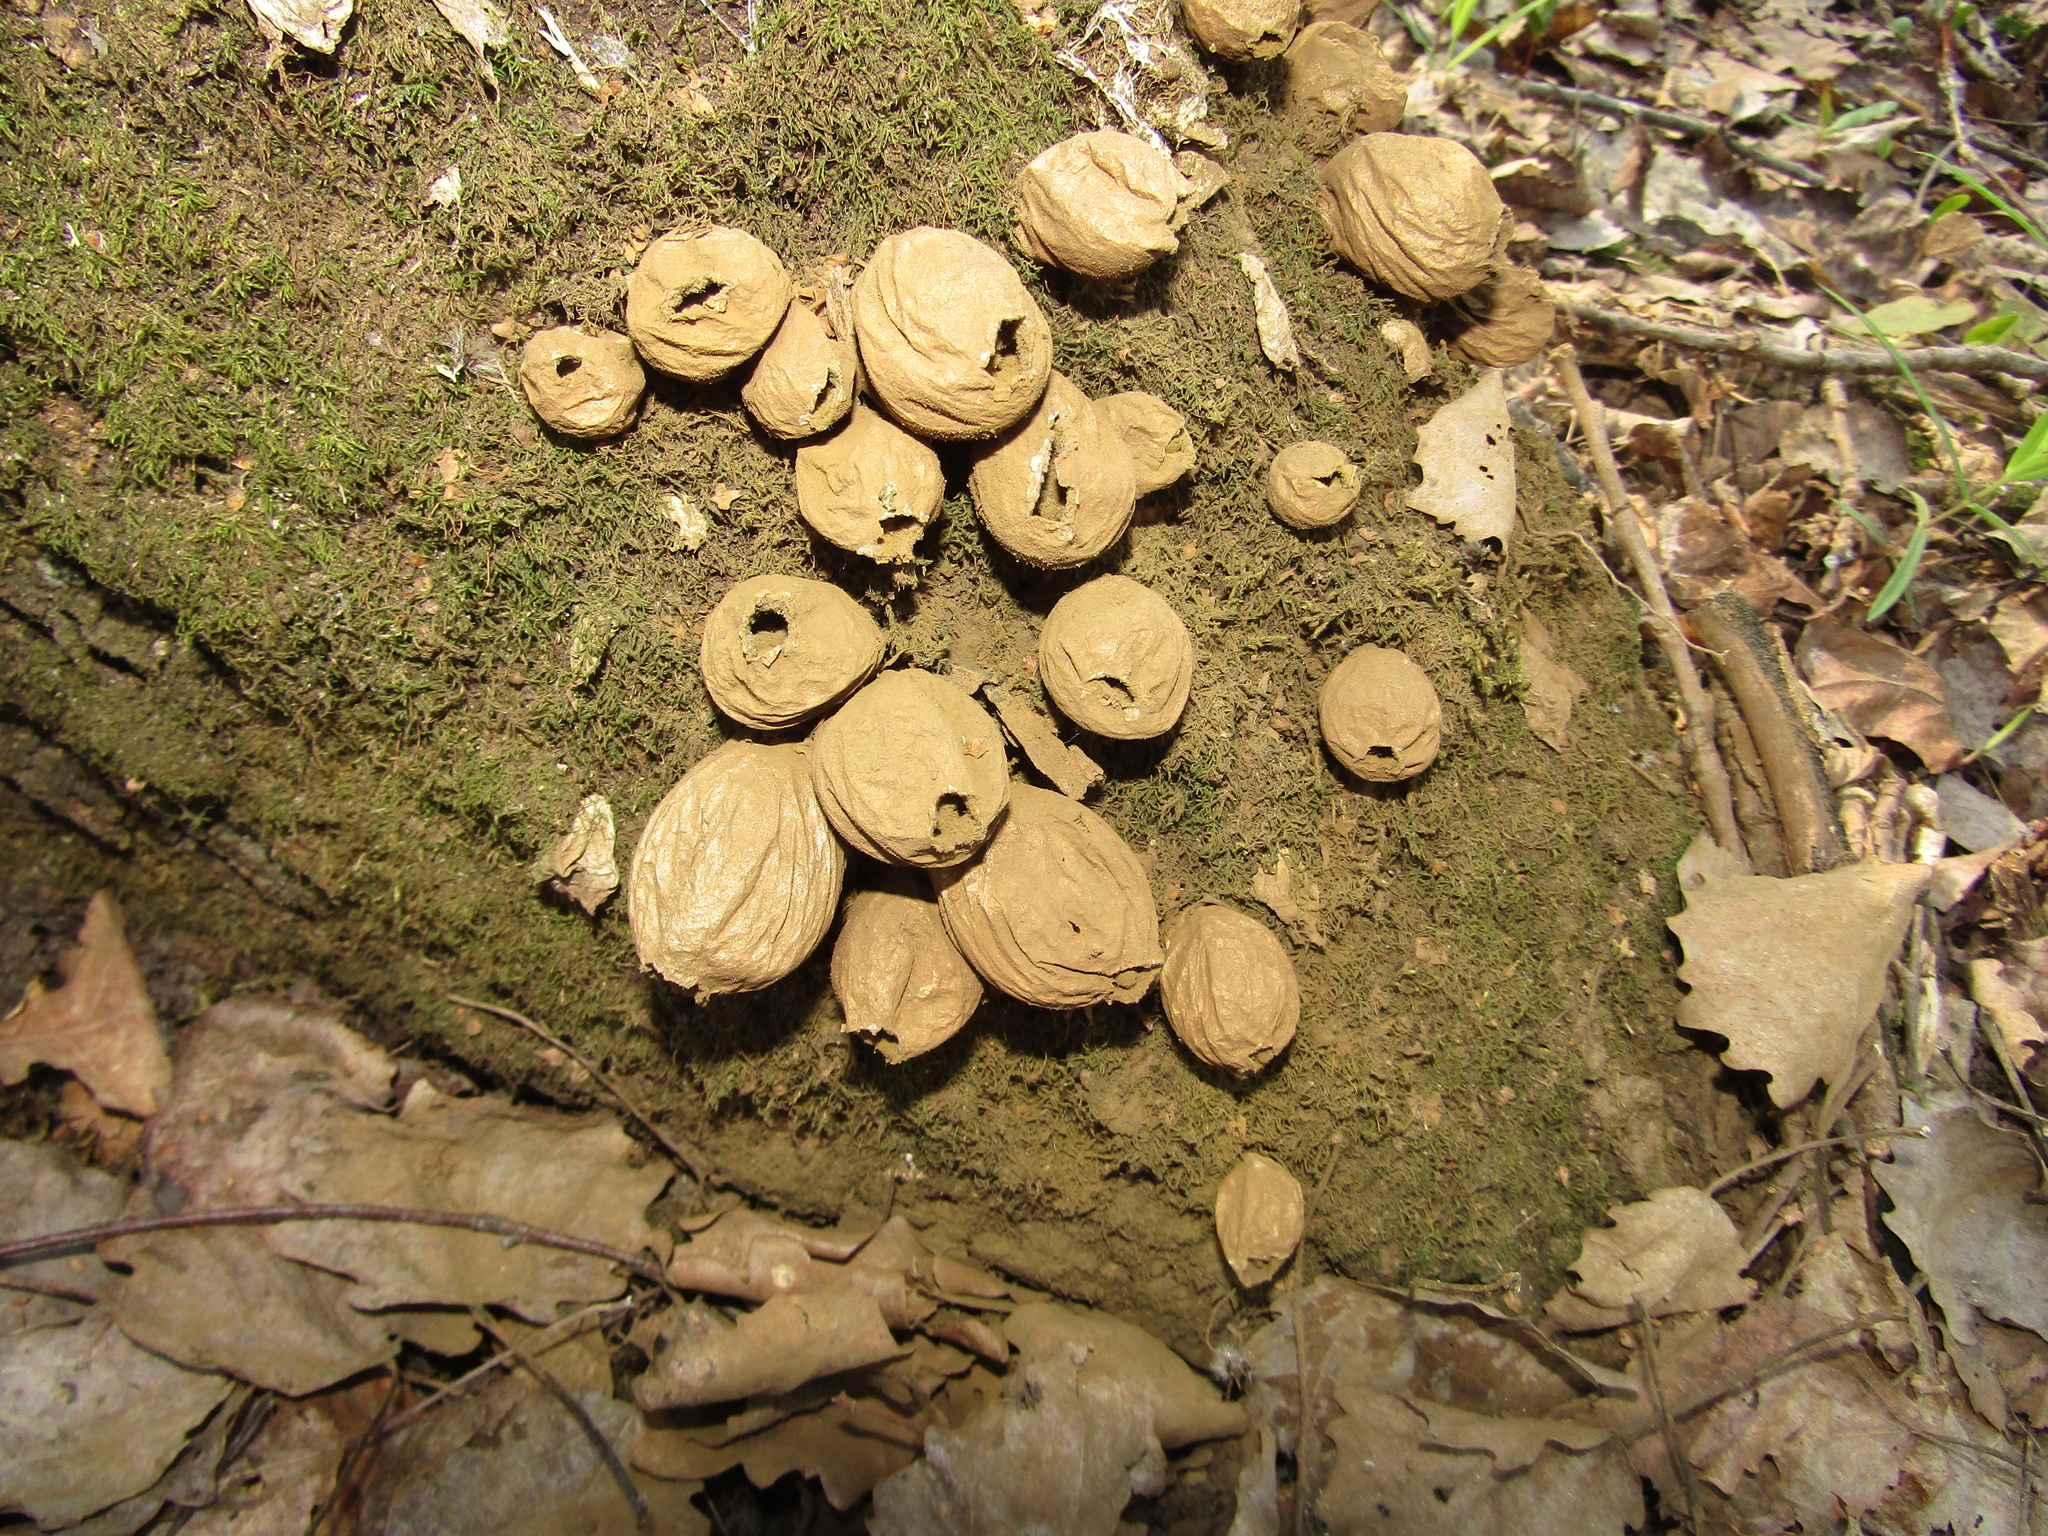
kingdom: Fungi
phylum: Basidiomycota
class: Agaricomycetes
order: Agaricales
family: Lycoperdaceae
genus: Apioperdon
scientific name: Apioperdon pyriforme
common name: Pear-shaped puffball
